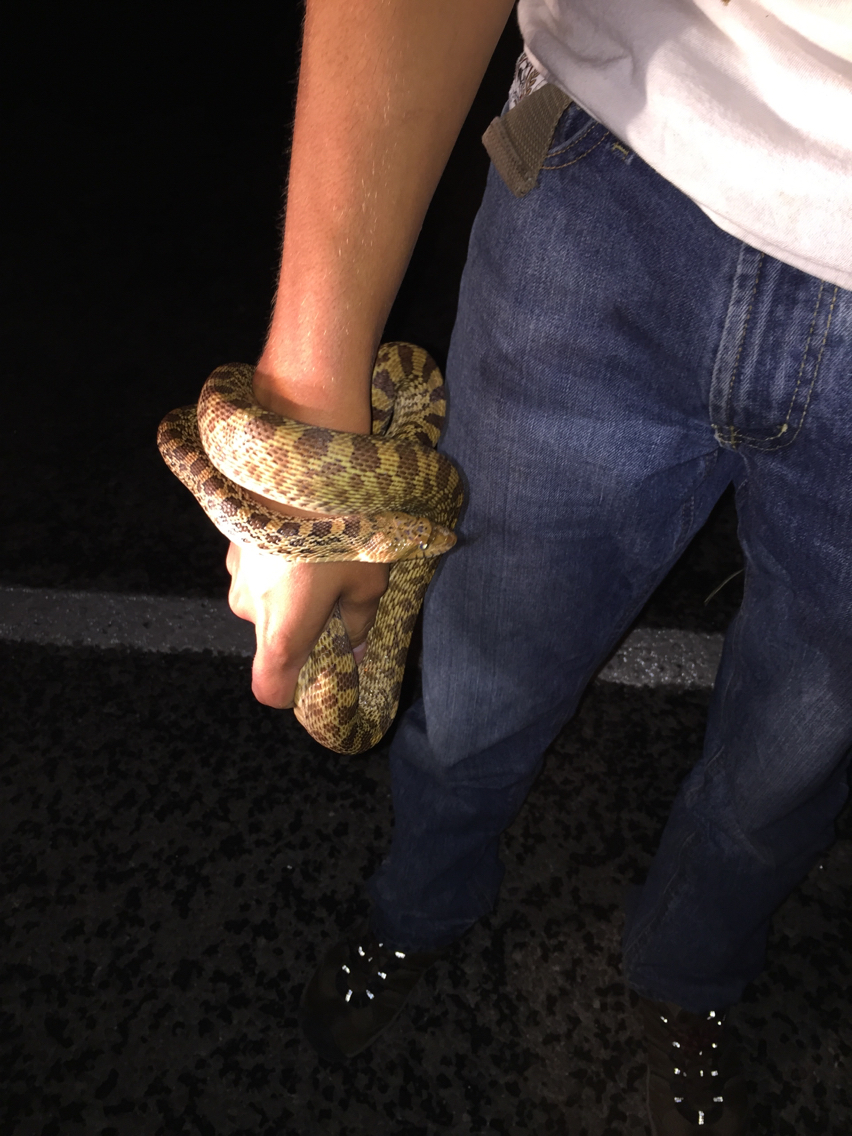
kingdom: Animalia
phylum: Chordata
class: Squamata
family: Colubridae
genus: Pituophis
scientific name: Pituophis catenifer
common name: Gopher snake
